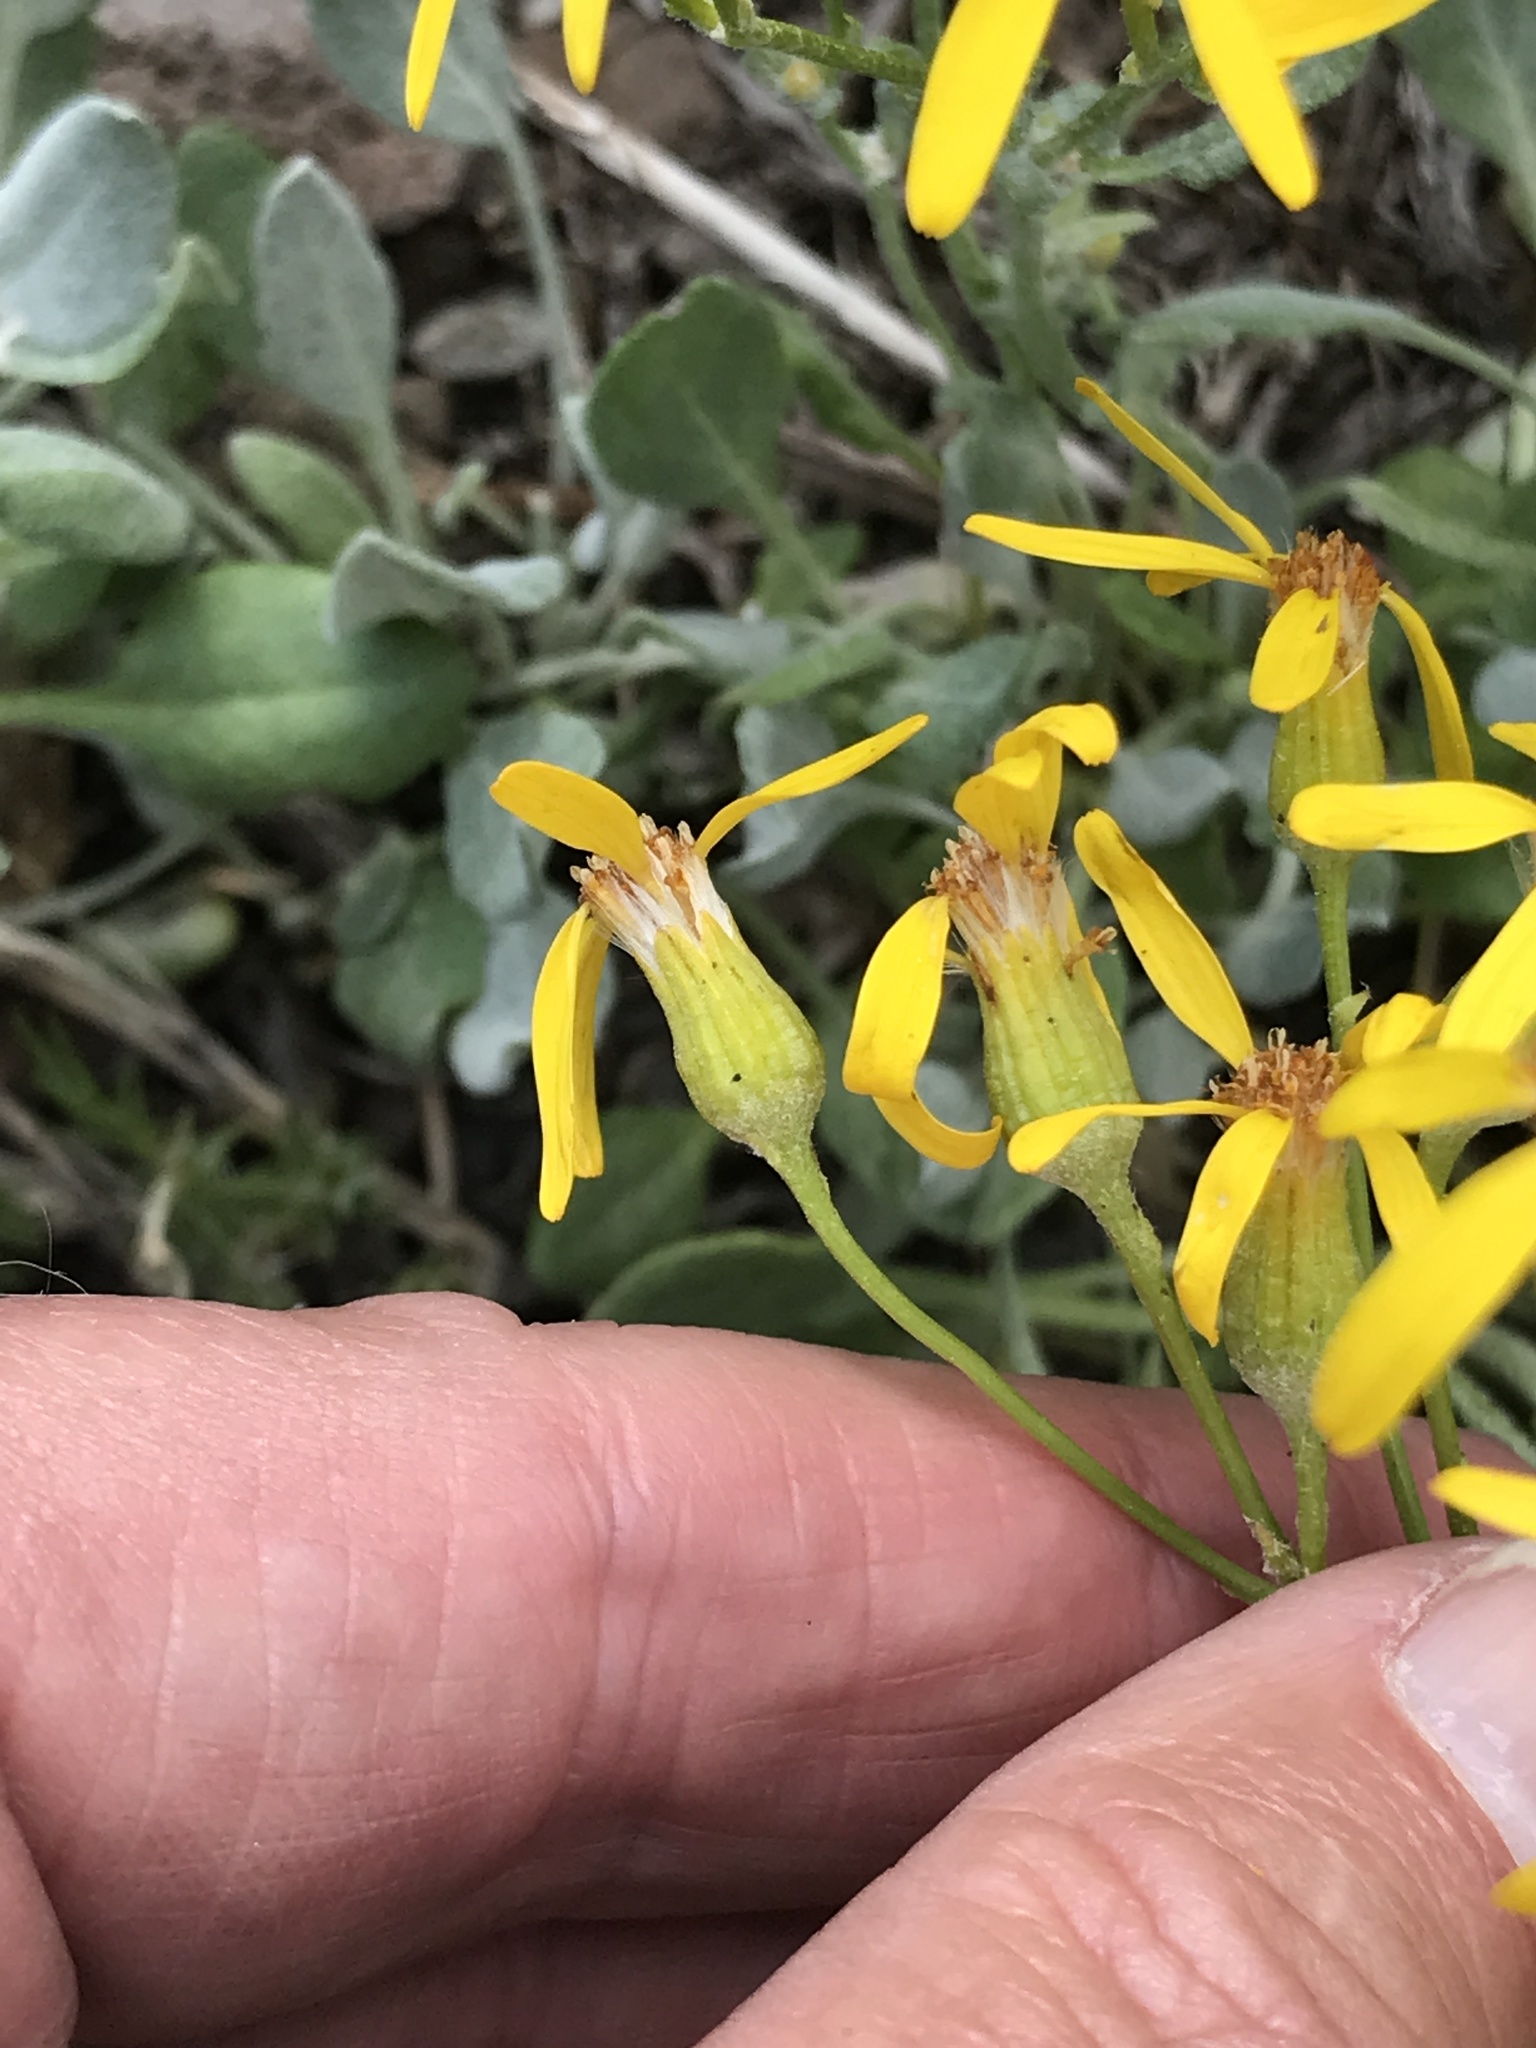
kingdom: Plantae
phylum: Tracheophyta
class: Magnoliopsida
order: Asterales
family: Asteraceae
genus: Packera
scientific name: Packera cana
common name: Woolly groundsel
